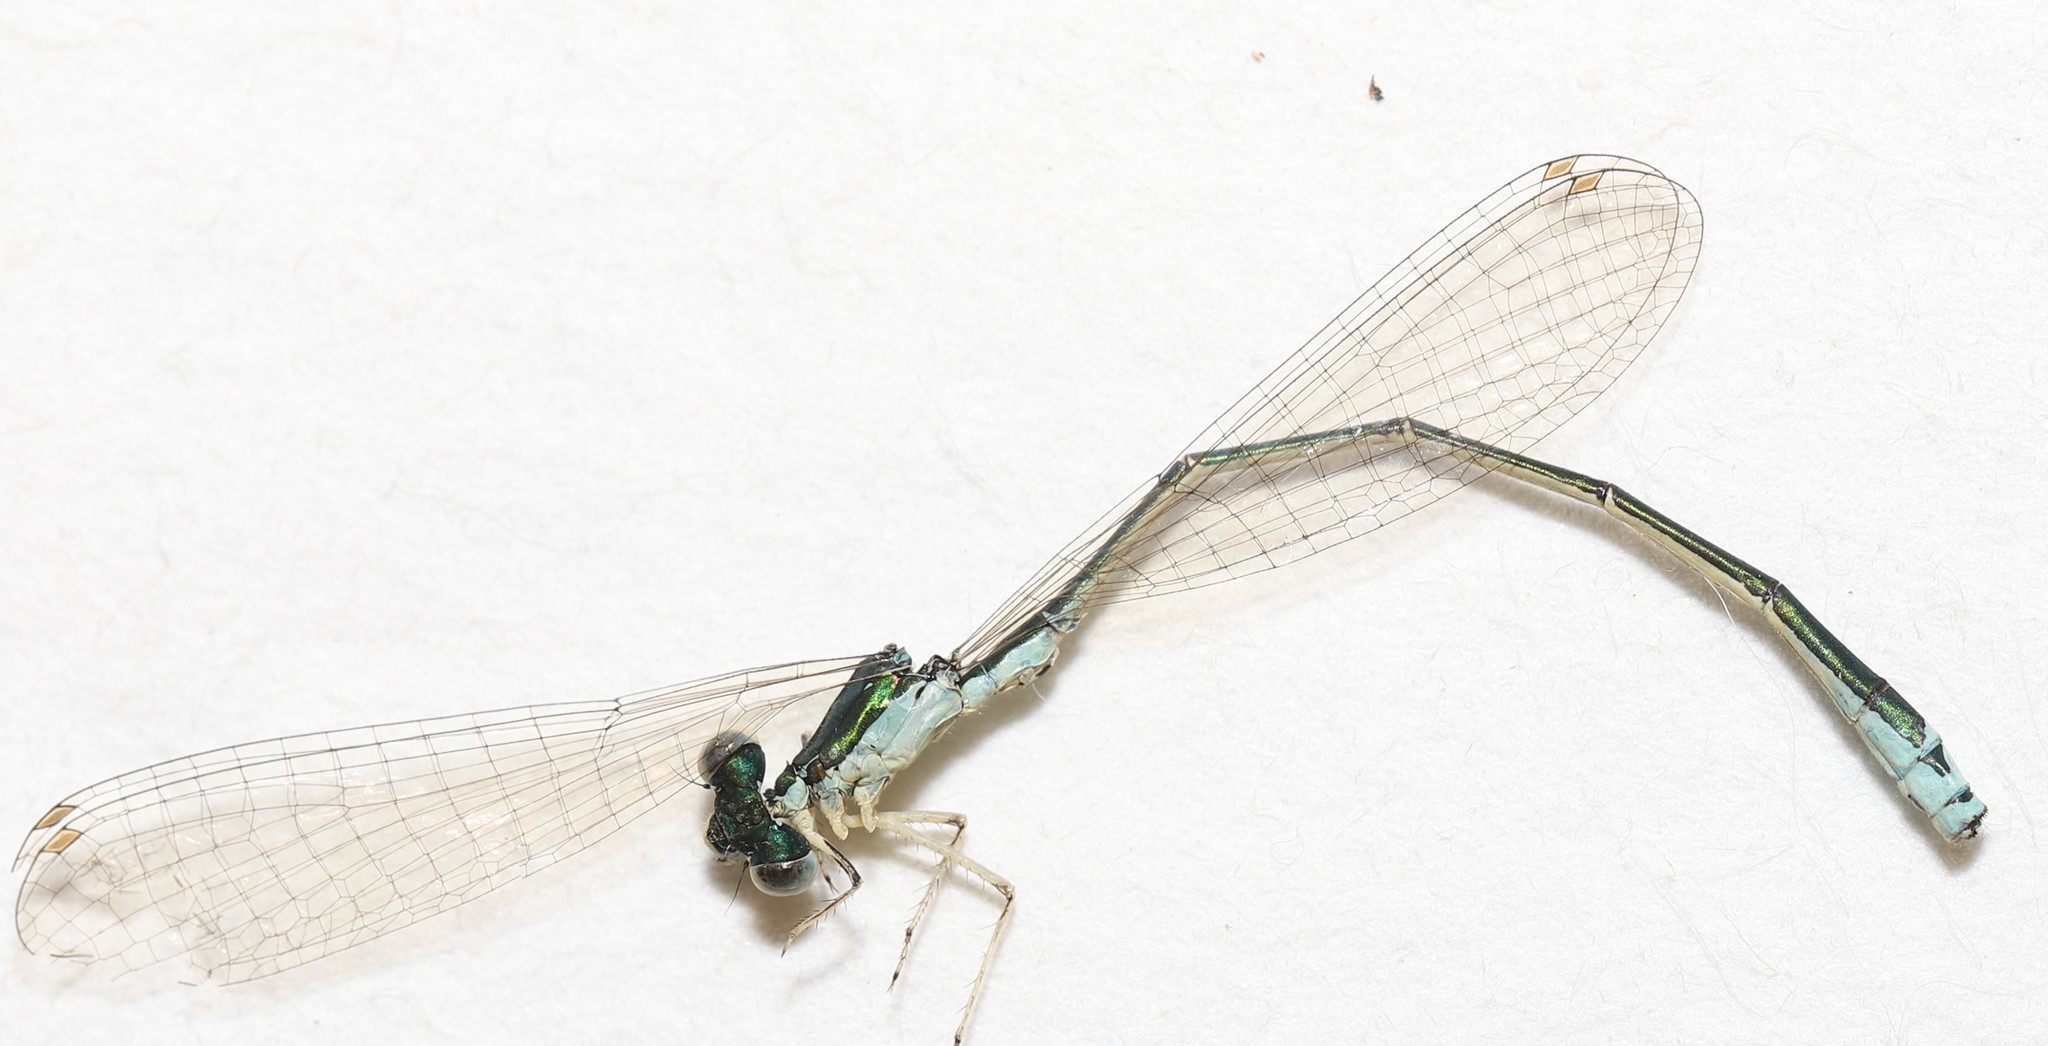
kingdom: Animalia
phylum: Arthropoda
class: Insecta
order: Odonata
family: Coenagrionidae
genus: Nehalennia
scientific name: Nehalennia irene
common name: Sedge sprite
